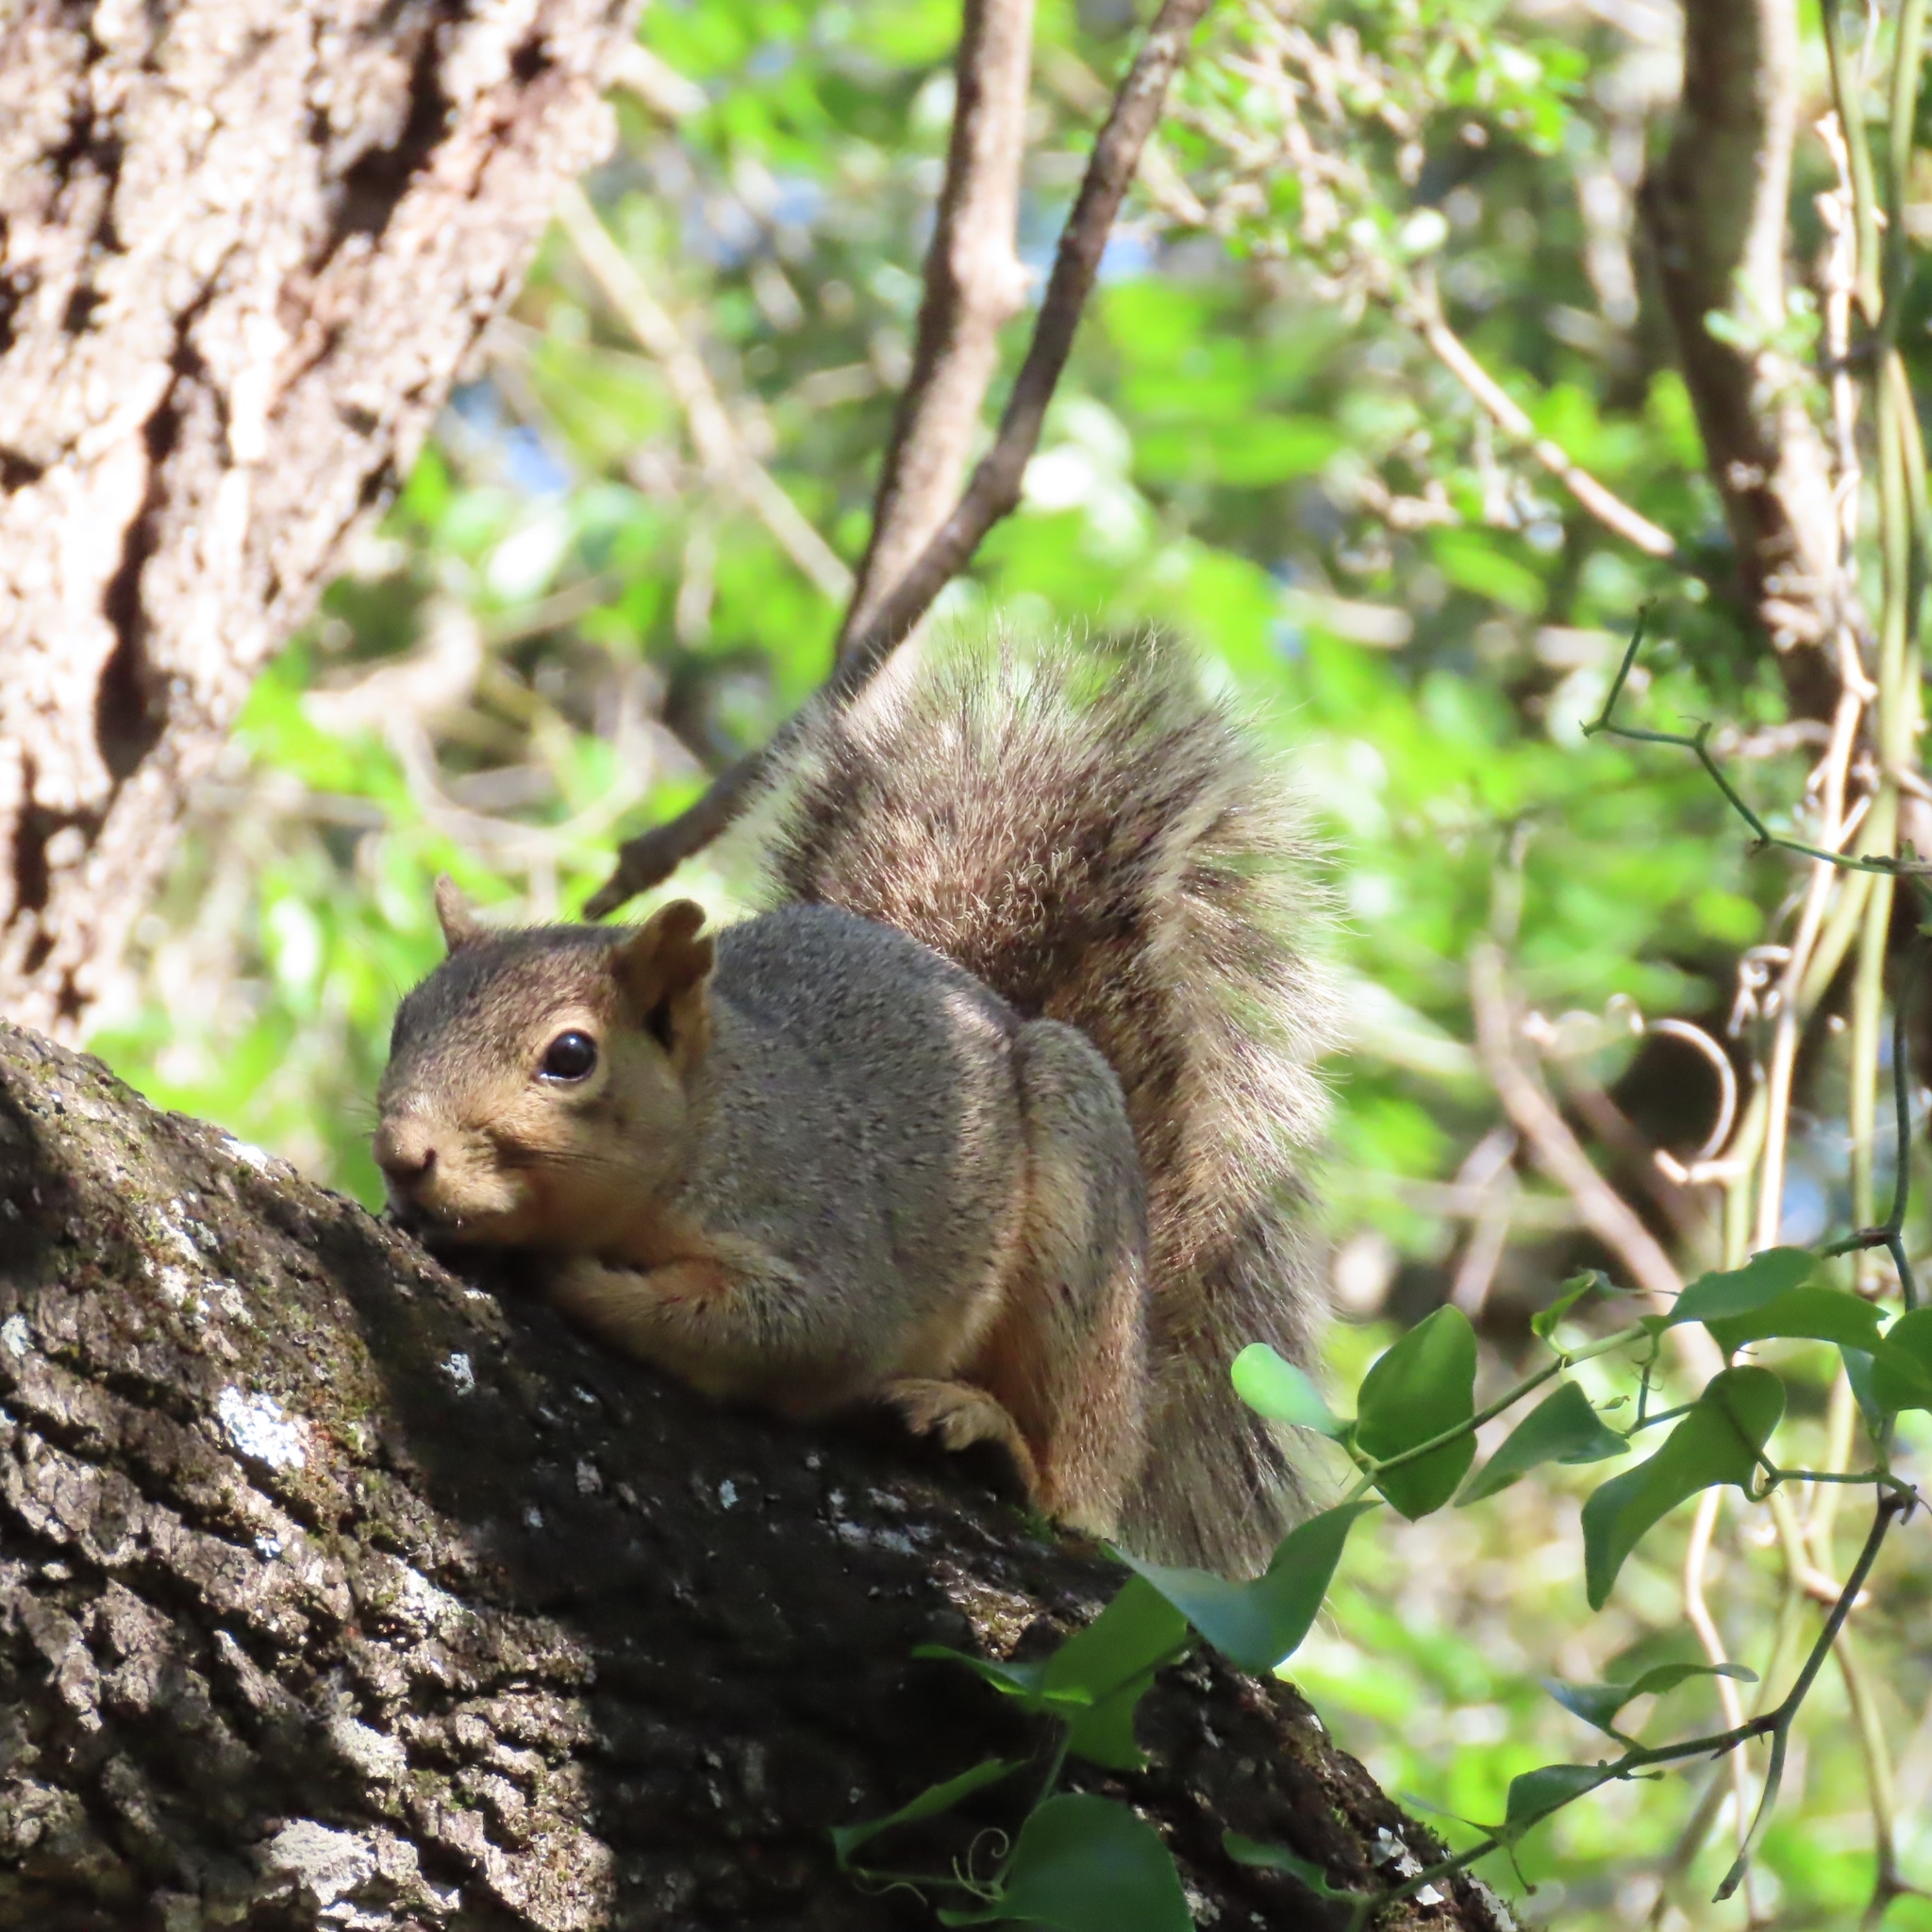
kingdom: Animalia
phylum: Chordata
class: Mammalia
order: Rodentia
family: Sciuridae
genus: Sciurus
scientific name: Sciurus niger
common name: Fox squirrel
